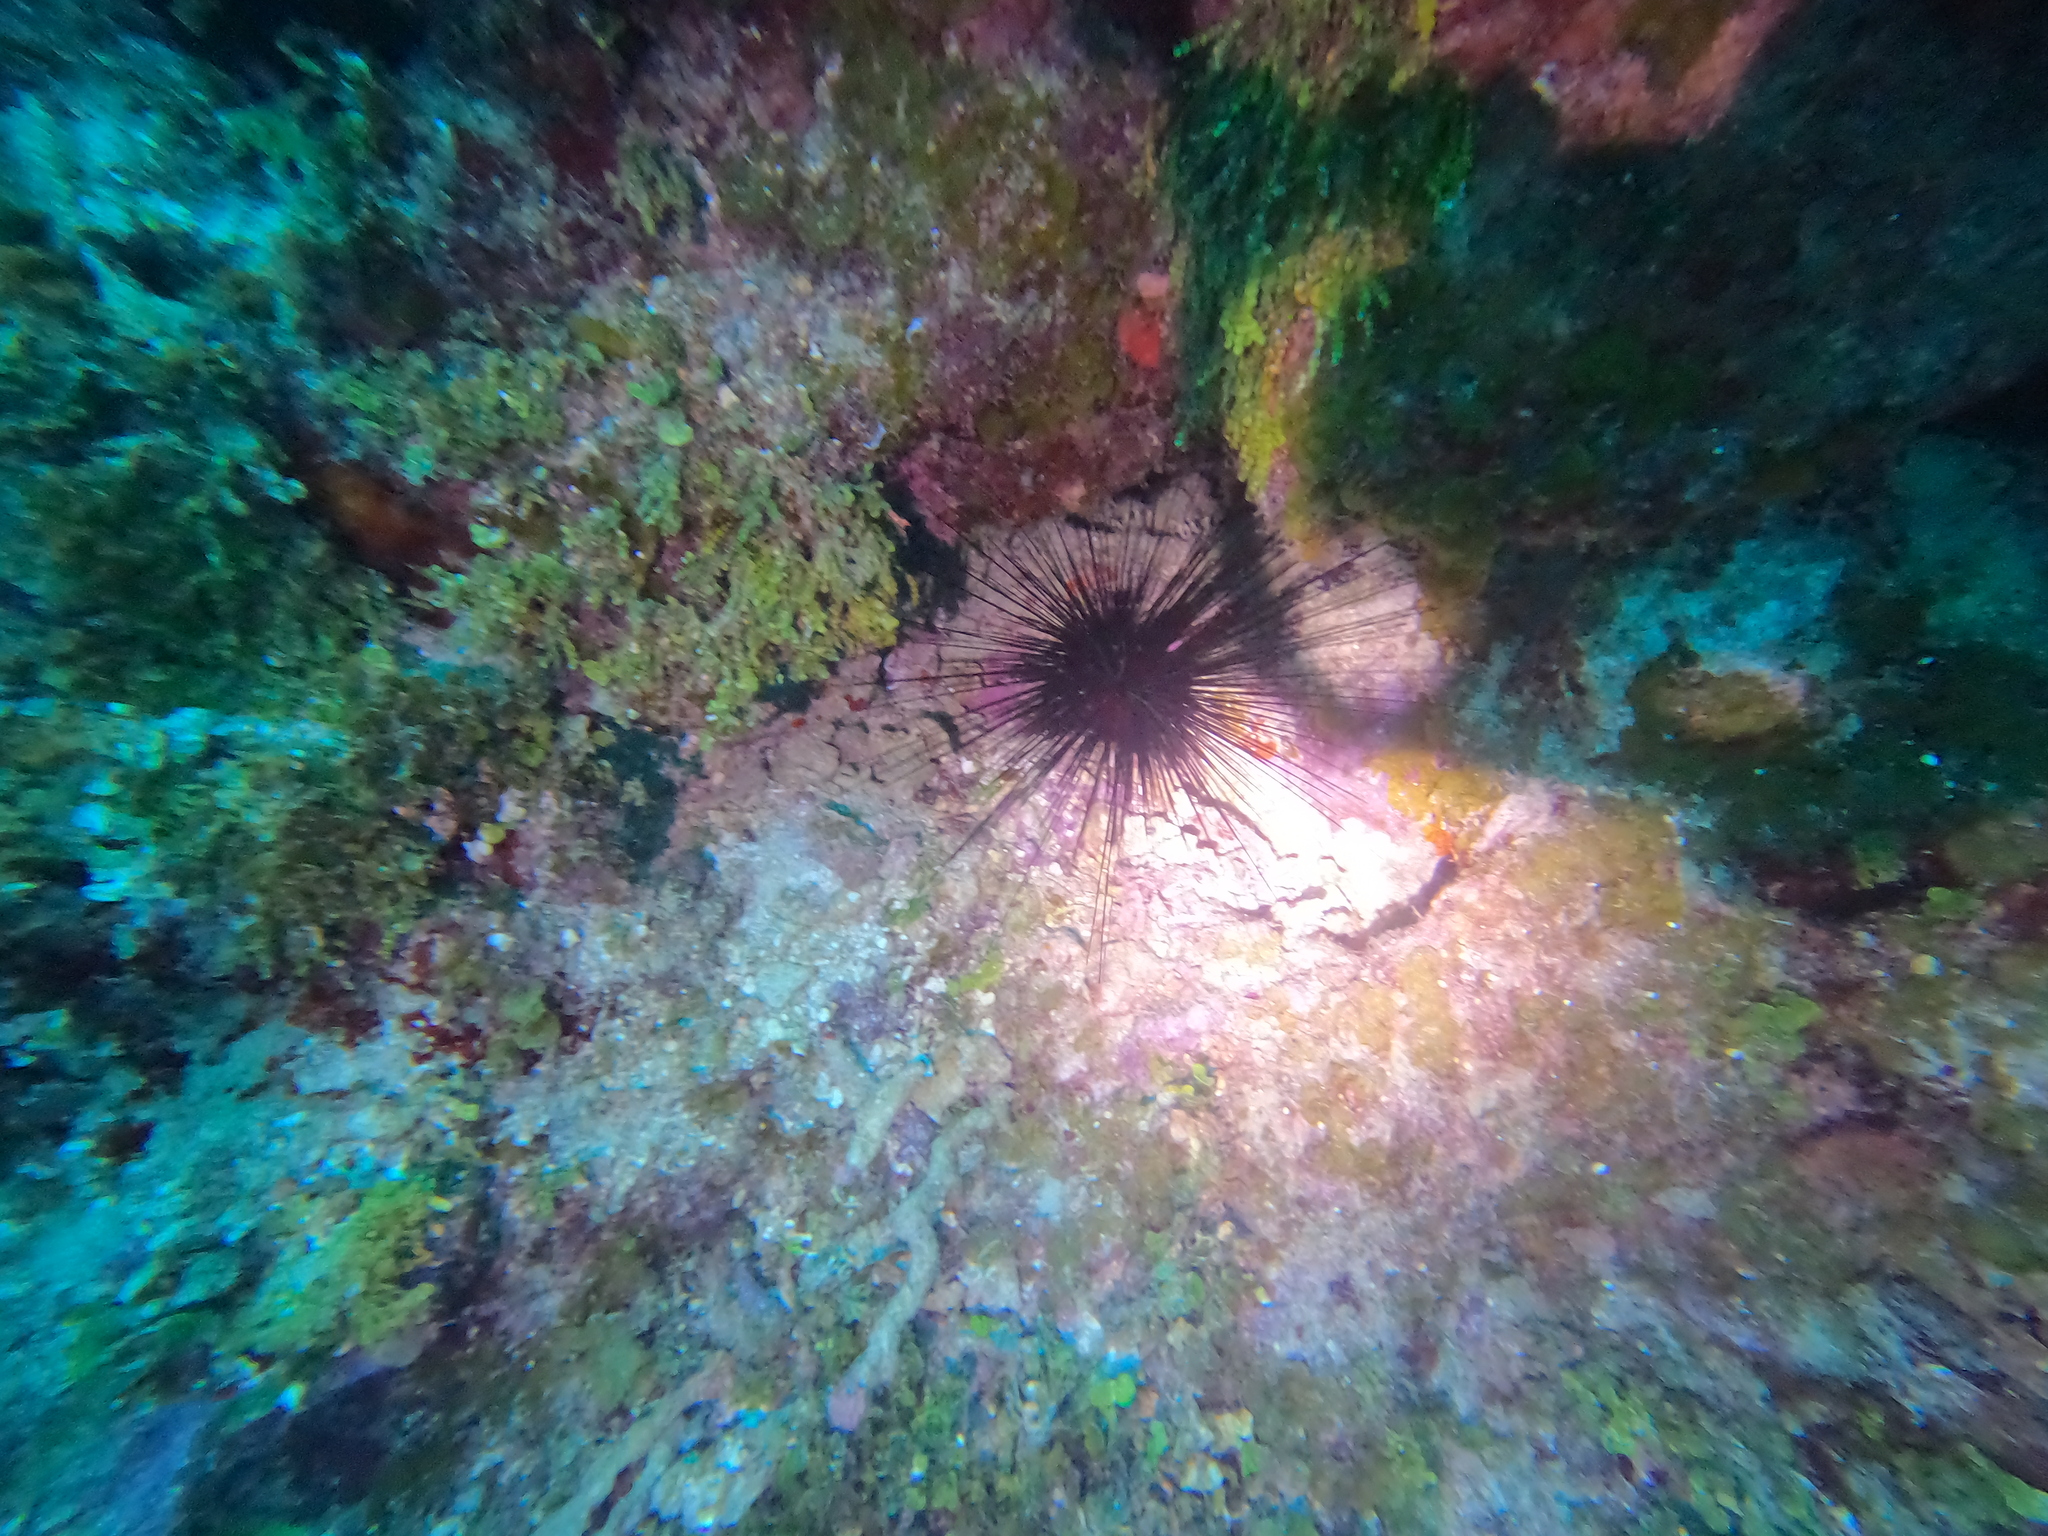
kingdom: Animalia
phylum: Echinodermata
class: Echinoidea
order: Diadematoida
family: Diadematidae
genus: Diadema
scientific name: Diadema antillarum
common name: Spiny urchin
